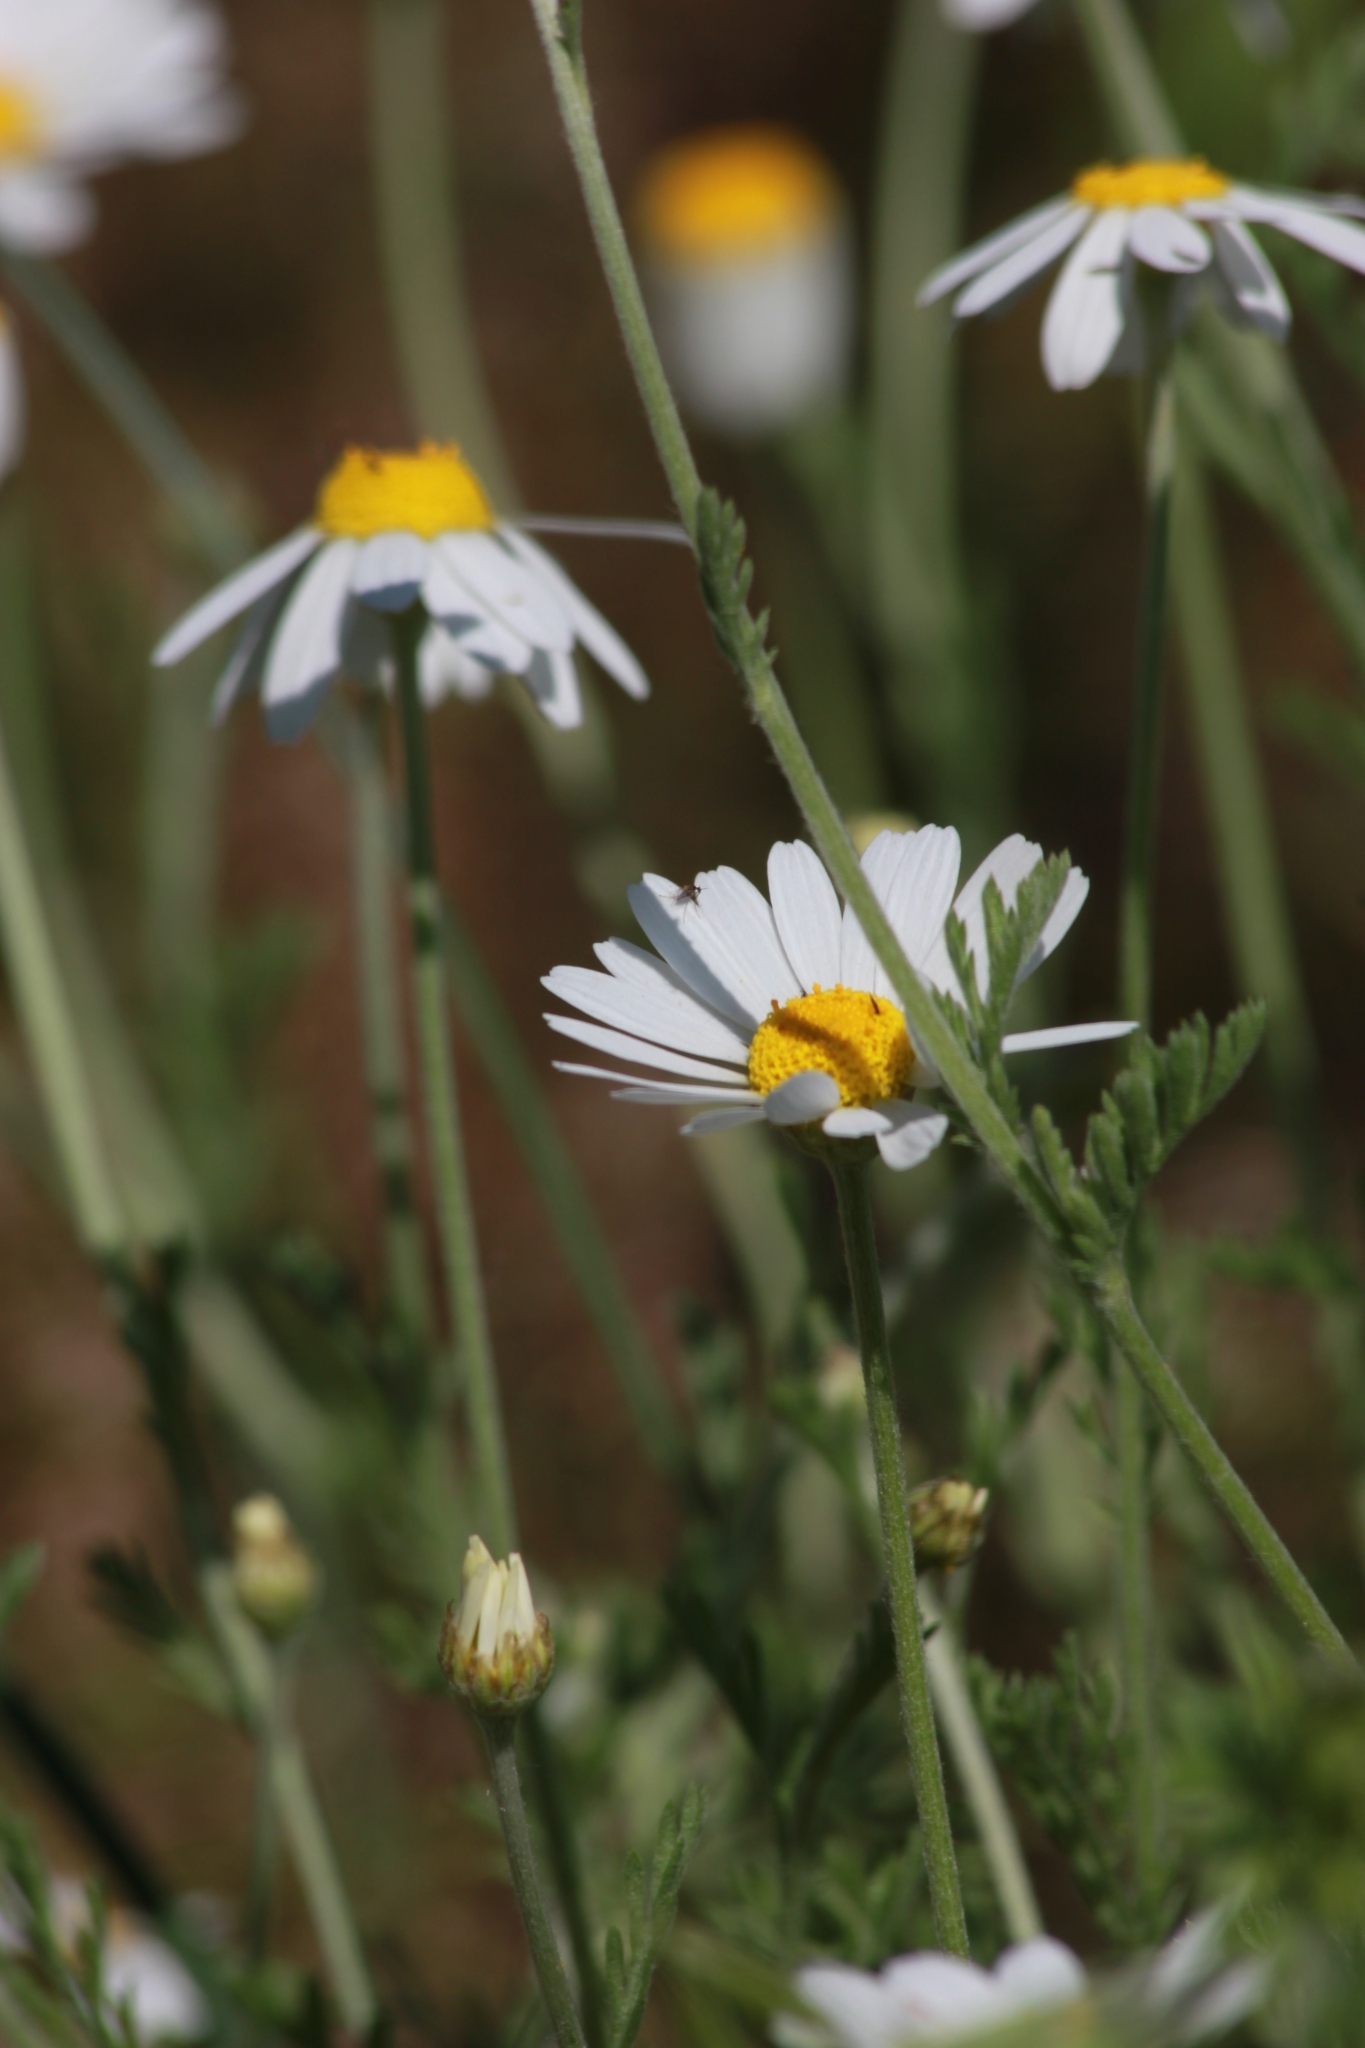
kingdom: Plantae
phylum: Tracheophyta
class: Magnoliopsida
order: Asterales
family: Asteraceae
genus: Anthemis
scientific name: Anthemis ruthenica
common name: Eastern chamomile
